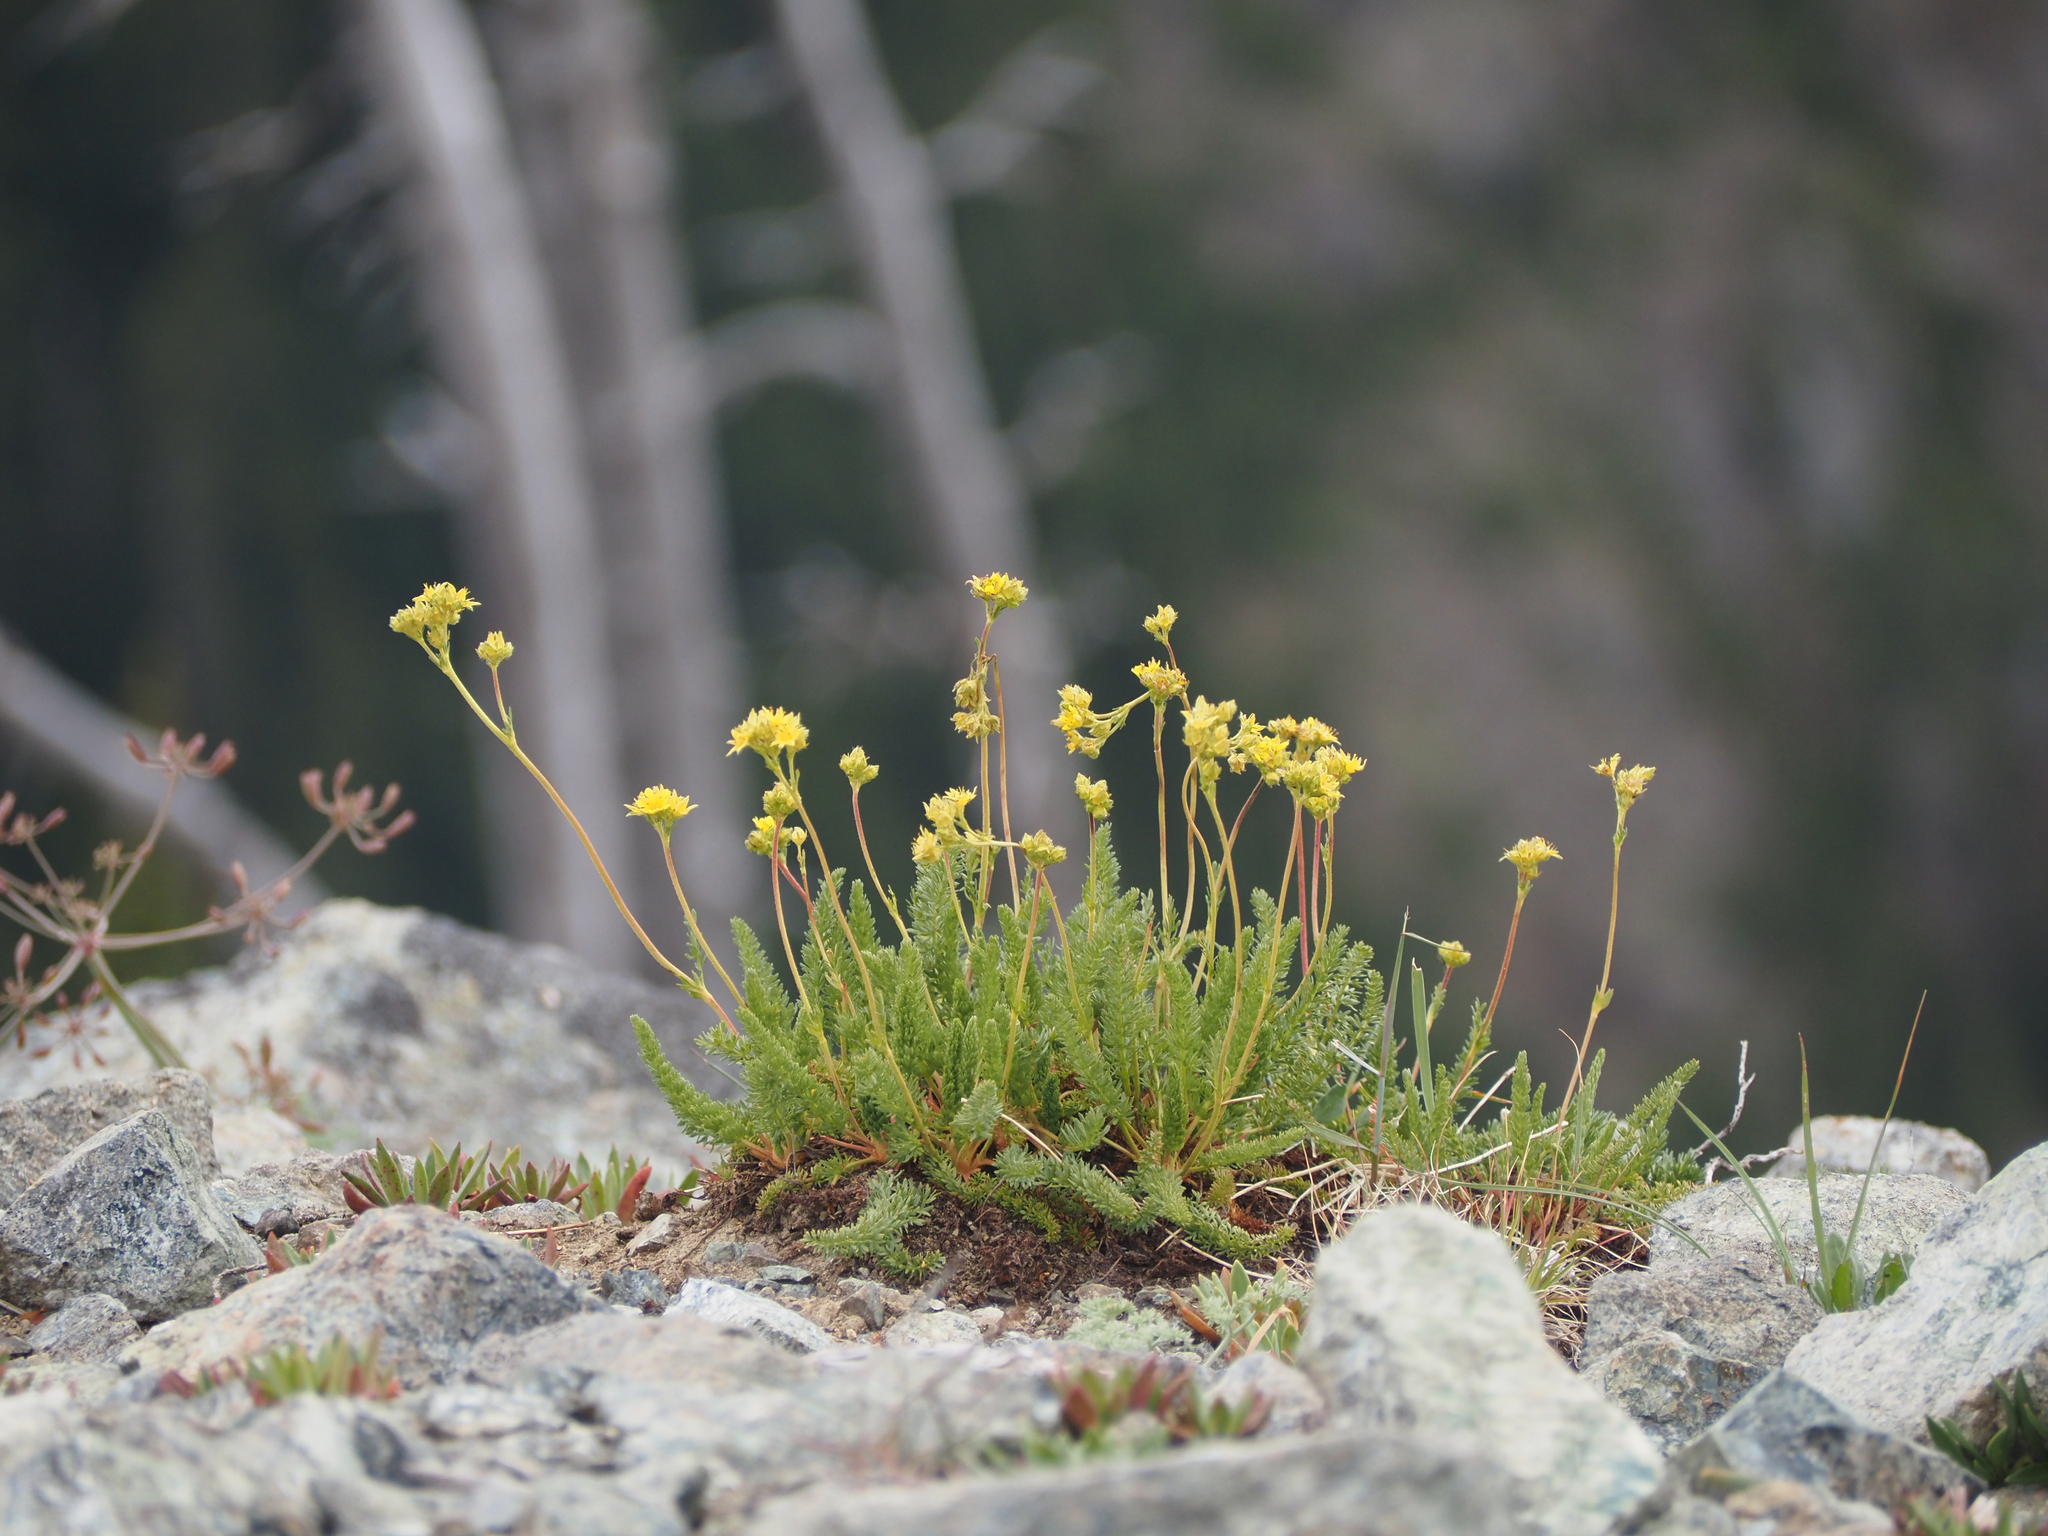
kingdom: Plantae
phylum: Tracheophyta
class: Magnoliopsida
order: Rosales
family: Rosaceae
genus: Potentilla
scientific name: Potentilla tweedyi
